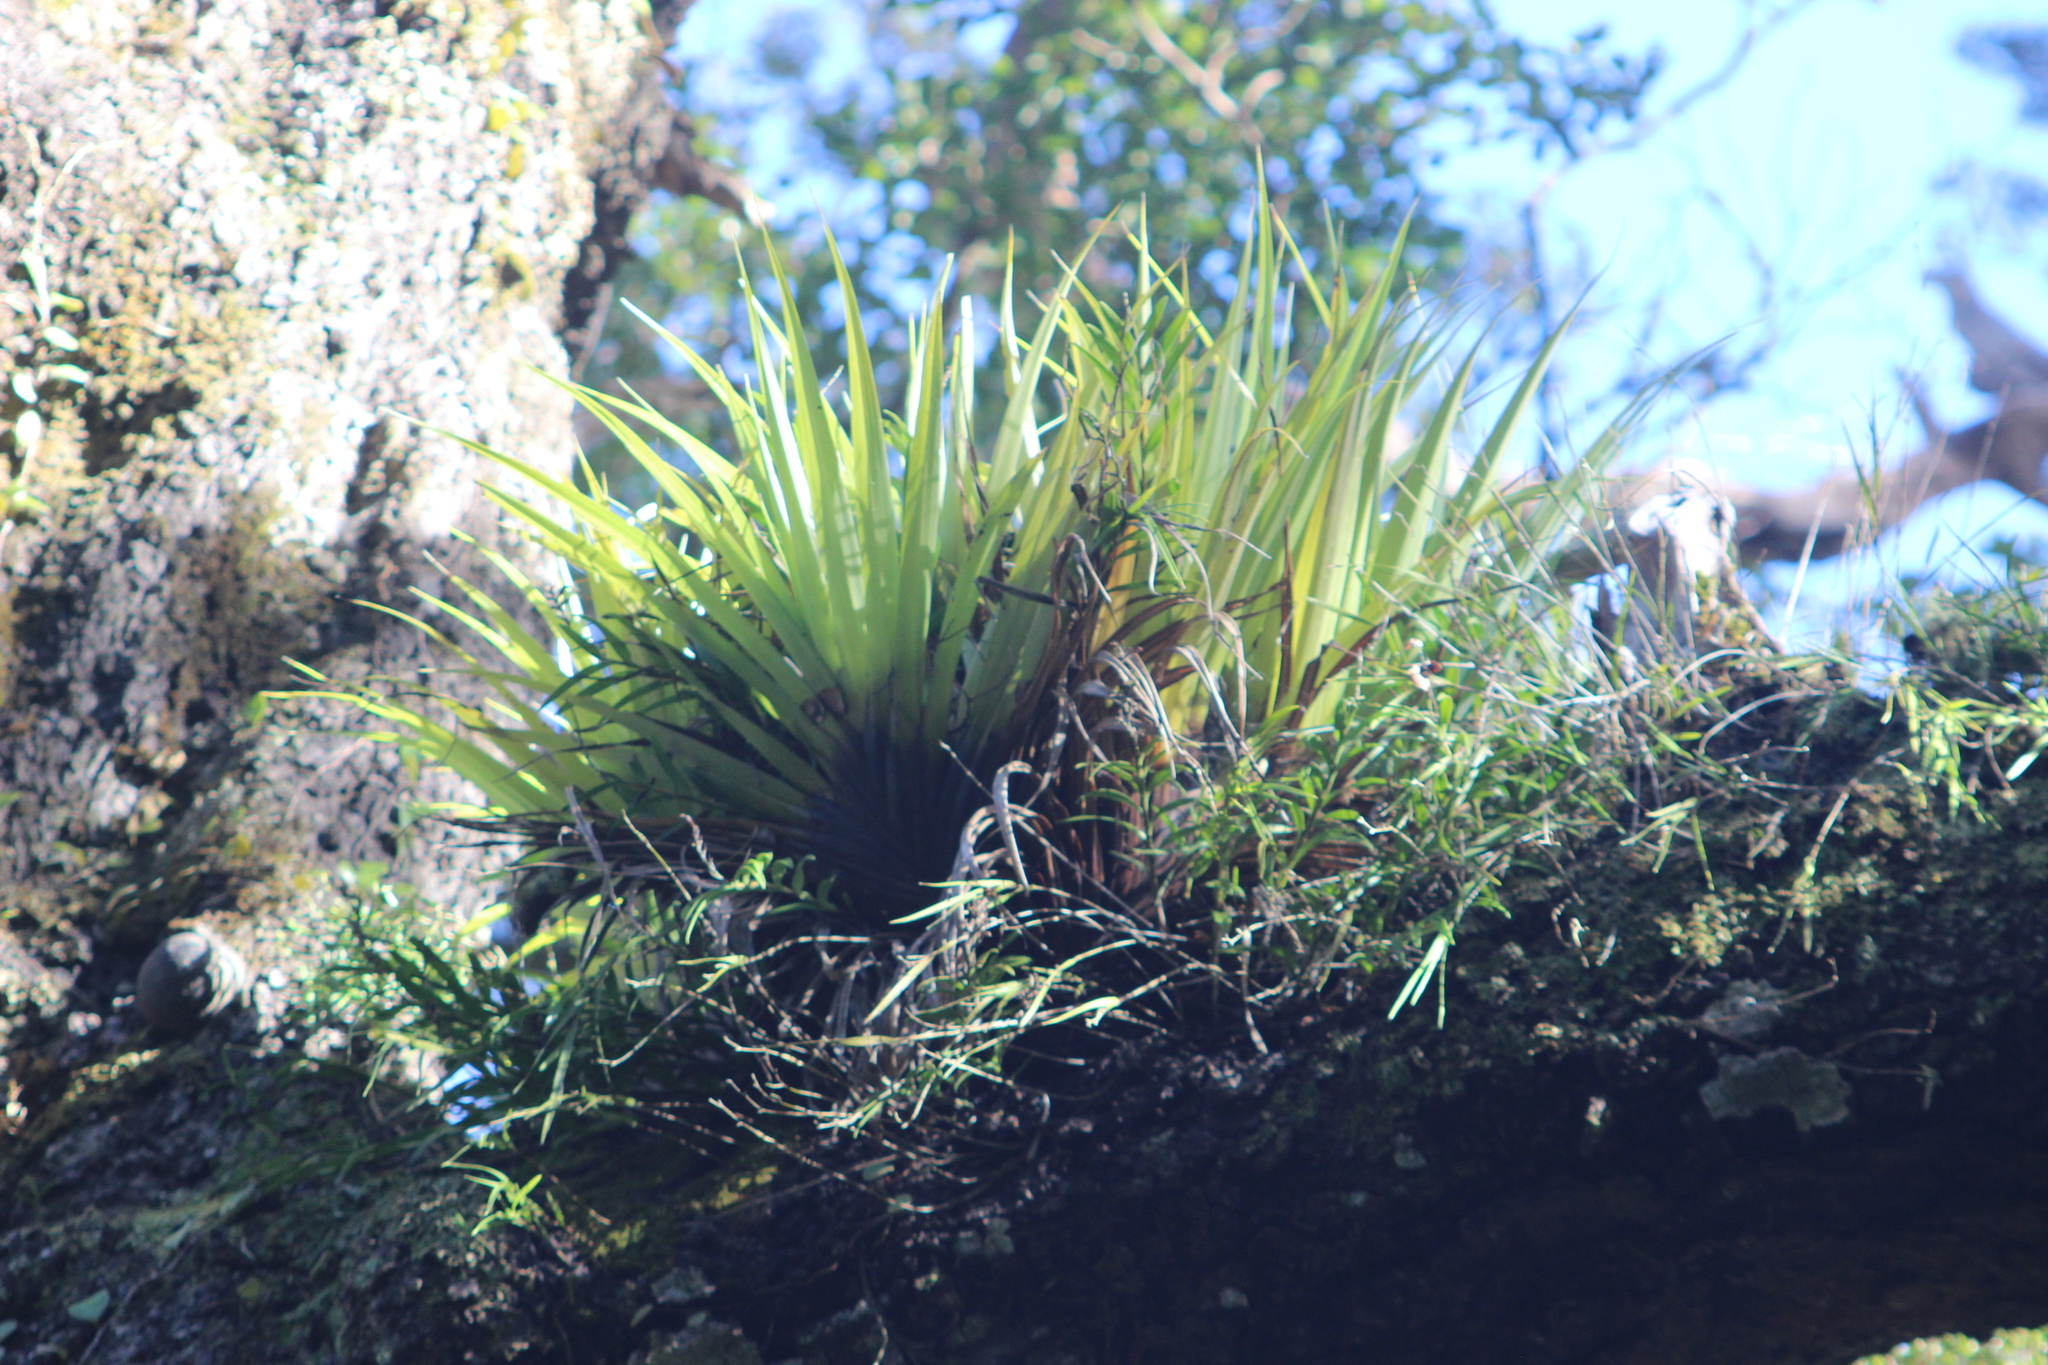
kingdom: Plantae
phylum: Tracheophyta
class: Liliopsida
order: Asparagales
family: Asteliaceae
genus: Astelia
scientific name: Astelia hastata
